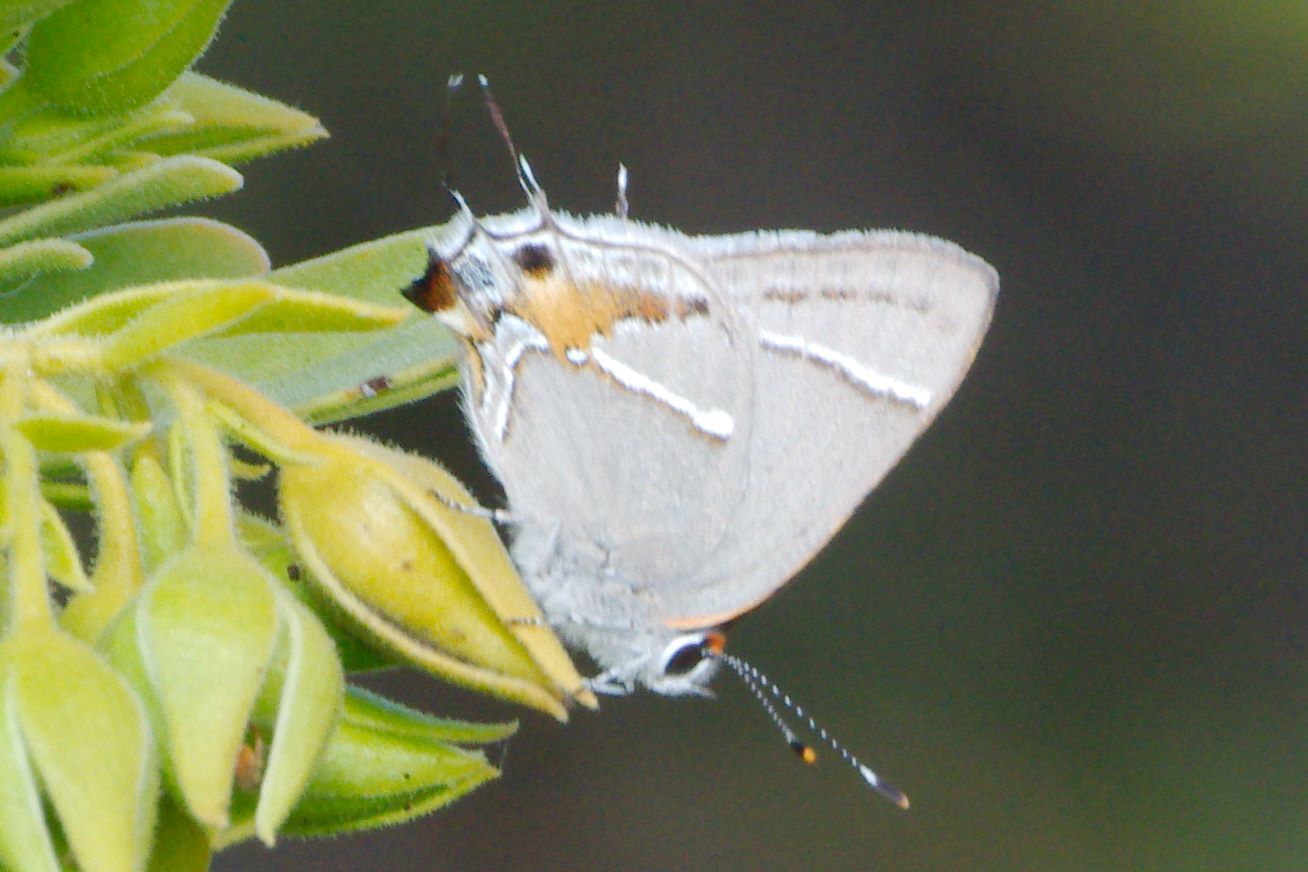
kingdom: Animalia
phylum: Arthropoda
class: Insecta
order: Lepidoptera
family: Lycaenidae
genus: Thecla
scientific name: Thecla martialis
